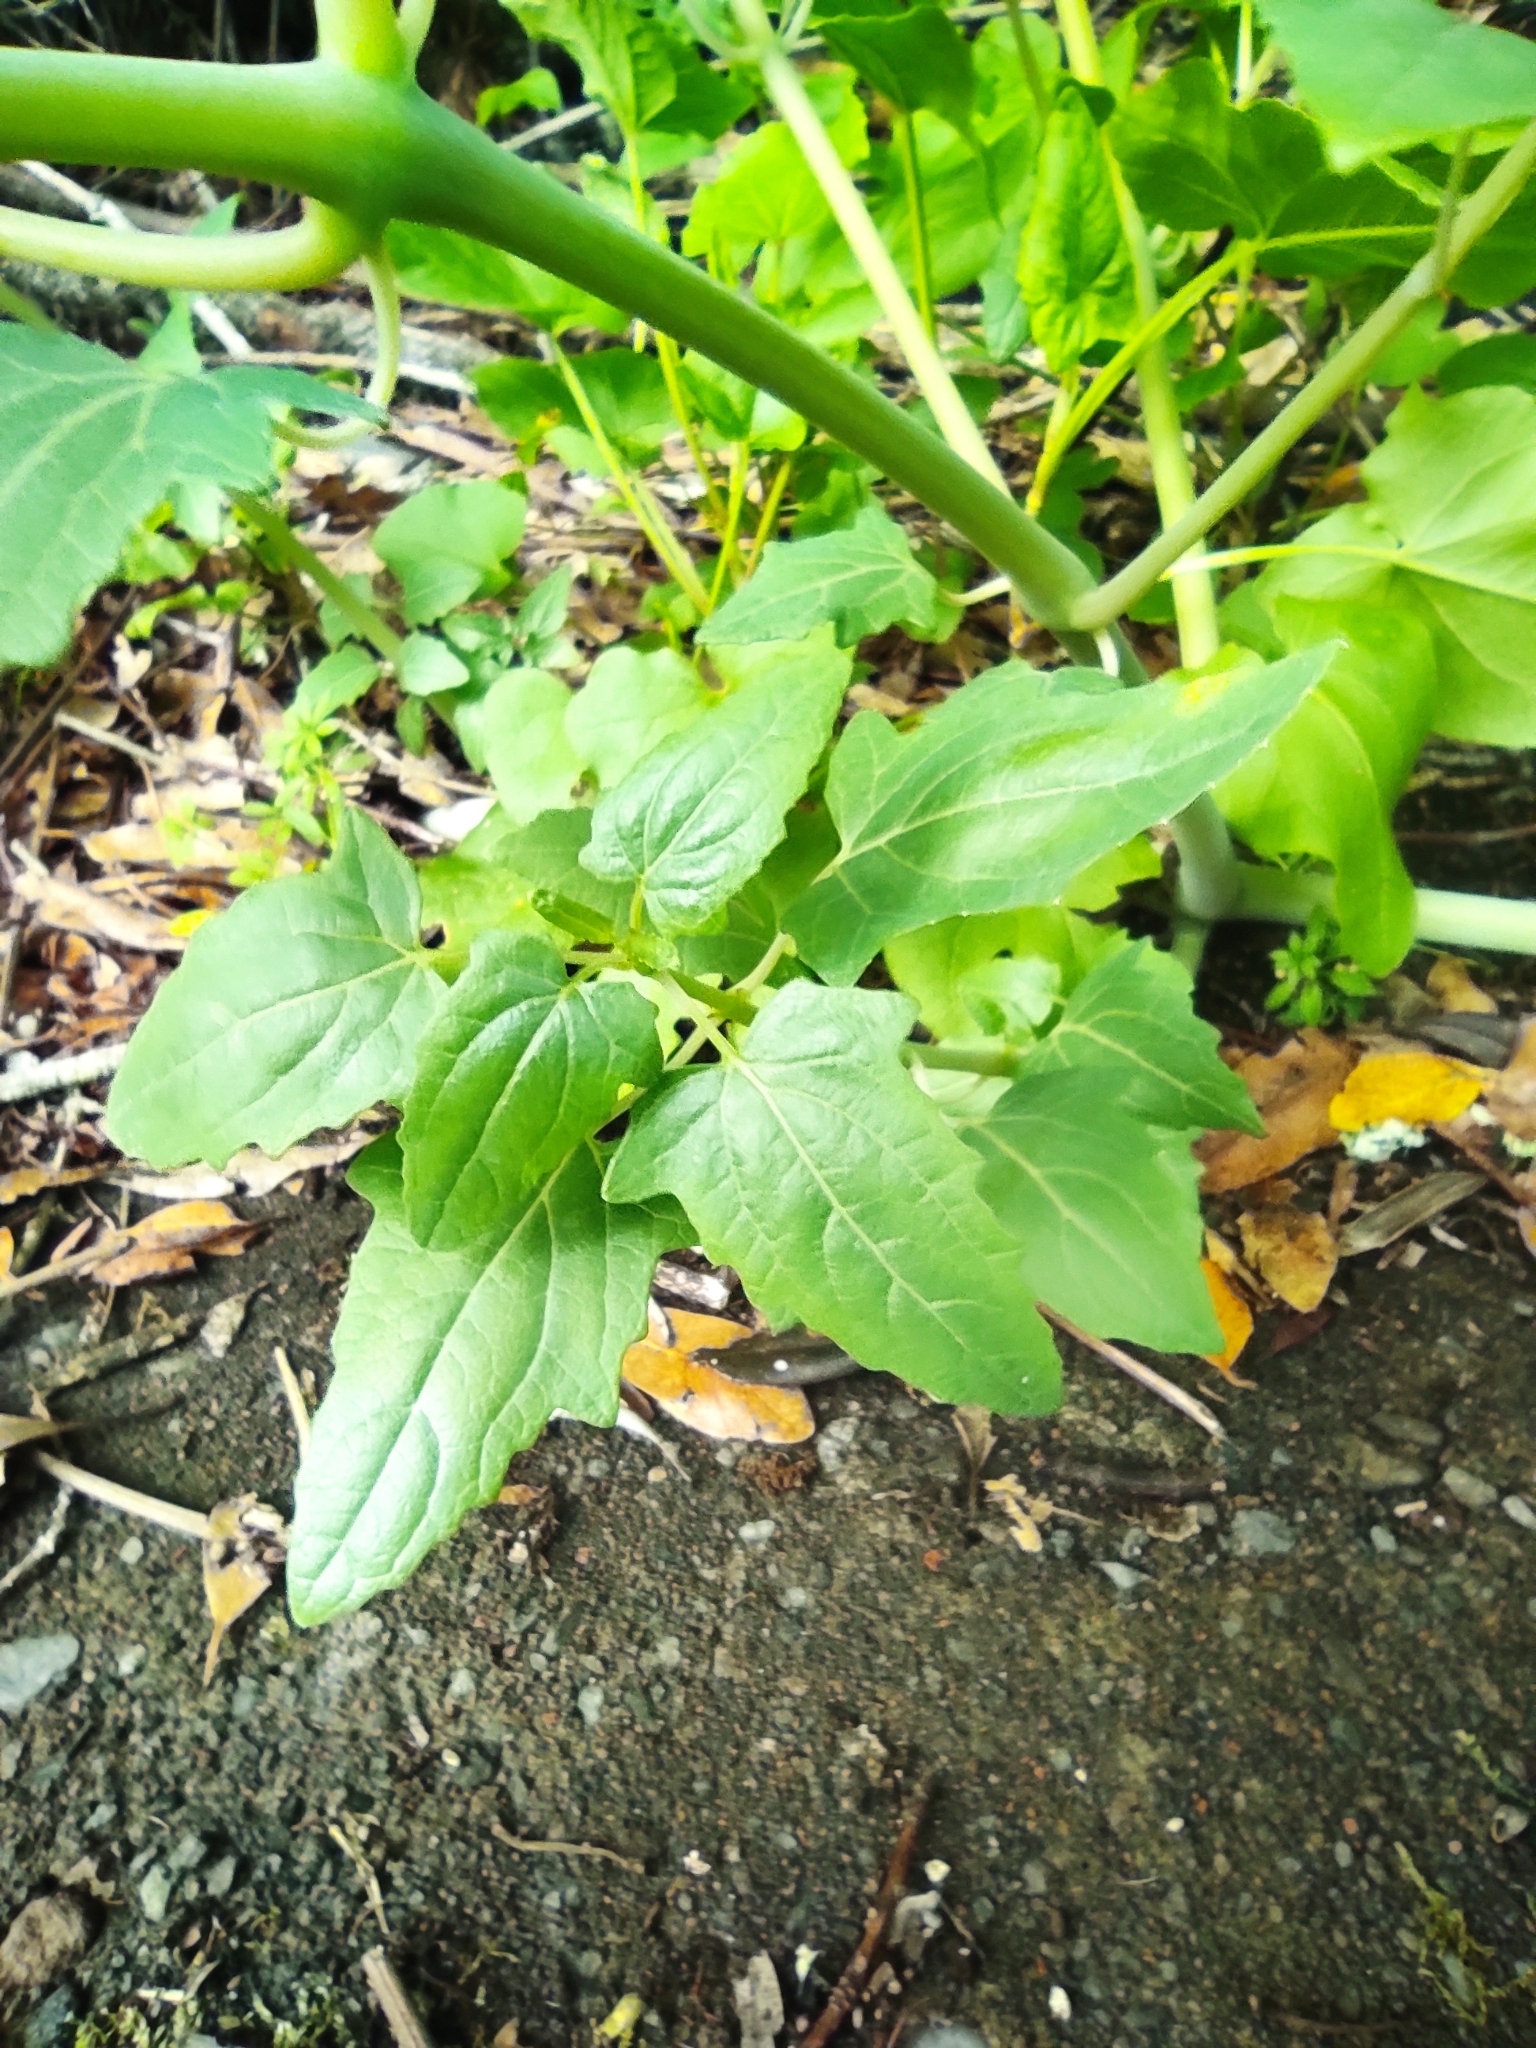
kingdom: Plantae
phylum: Tracheophyta
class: Magnoliopsida
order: Asterales
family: Campanulaceae
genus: Canarina
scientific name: Canarina canariensis
